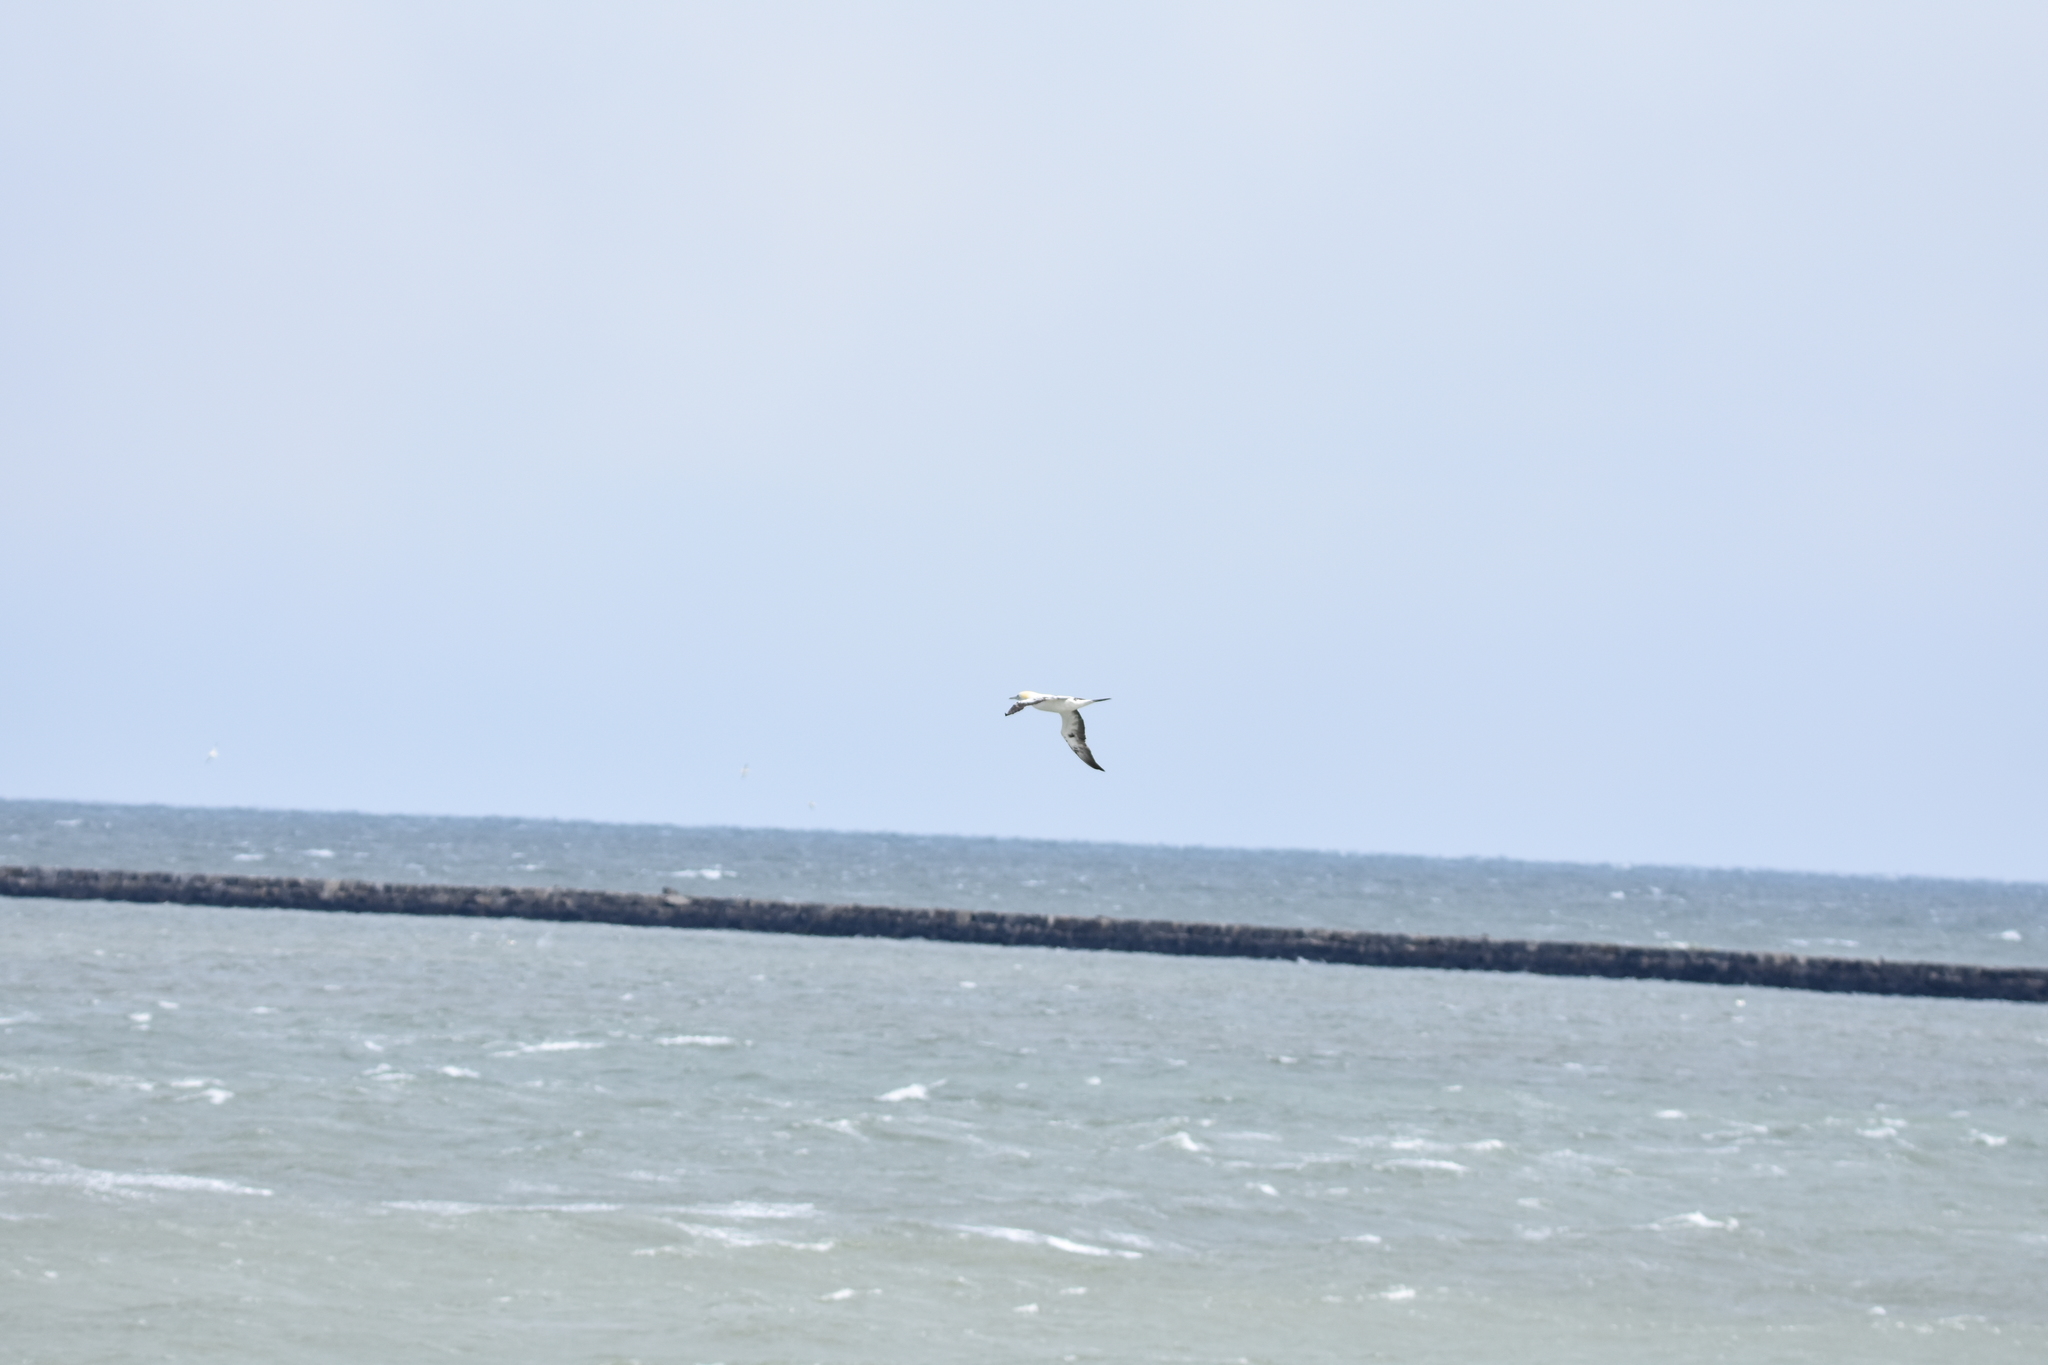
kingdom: Animalia
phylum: Chordata
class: Aves
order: Suliformes
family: Sulidae
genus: Morus
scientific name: Morus bassanus
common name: Northern gannet
